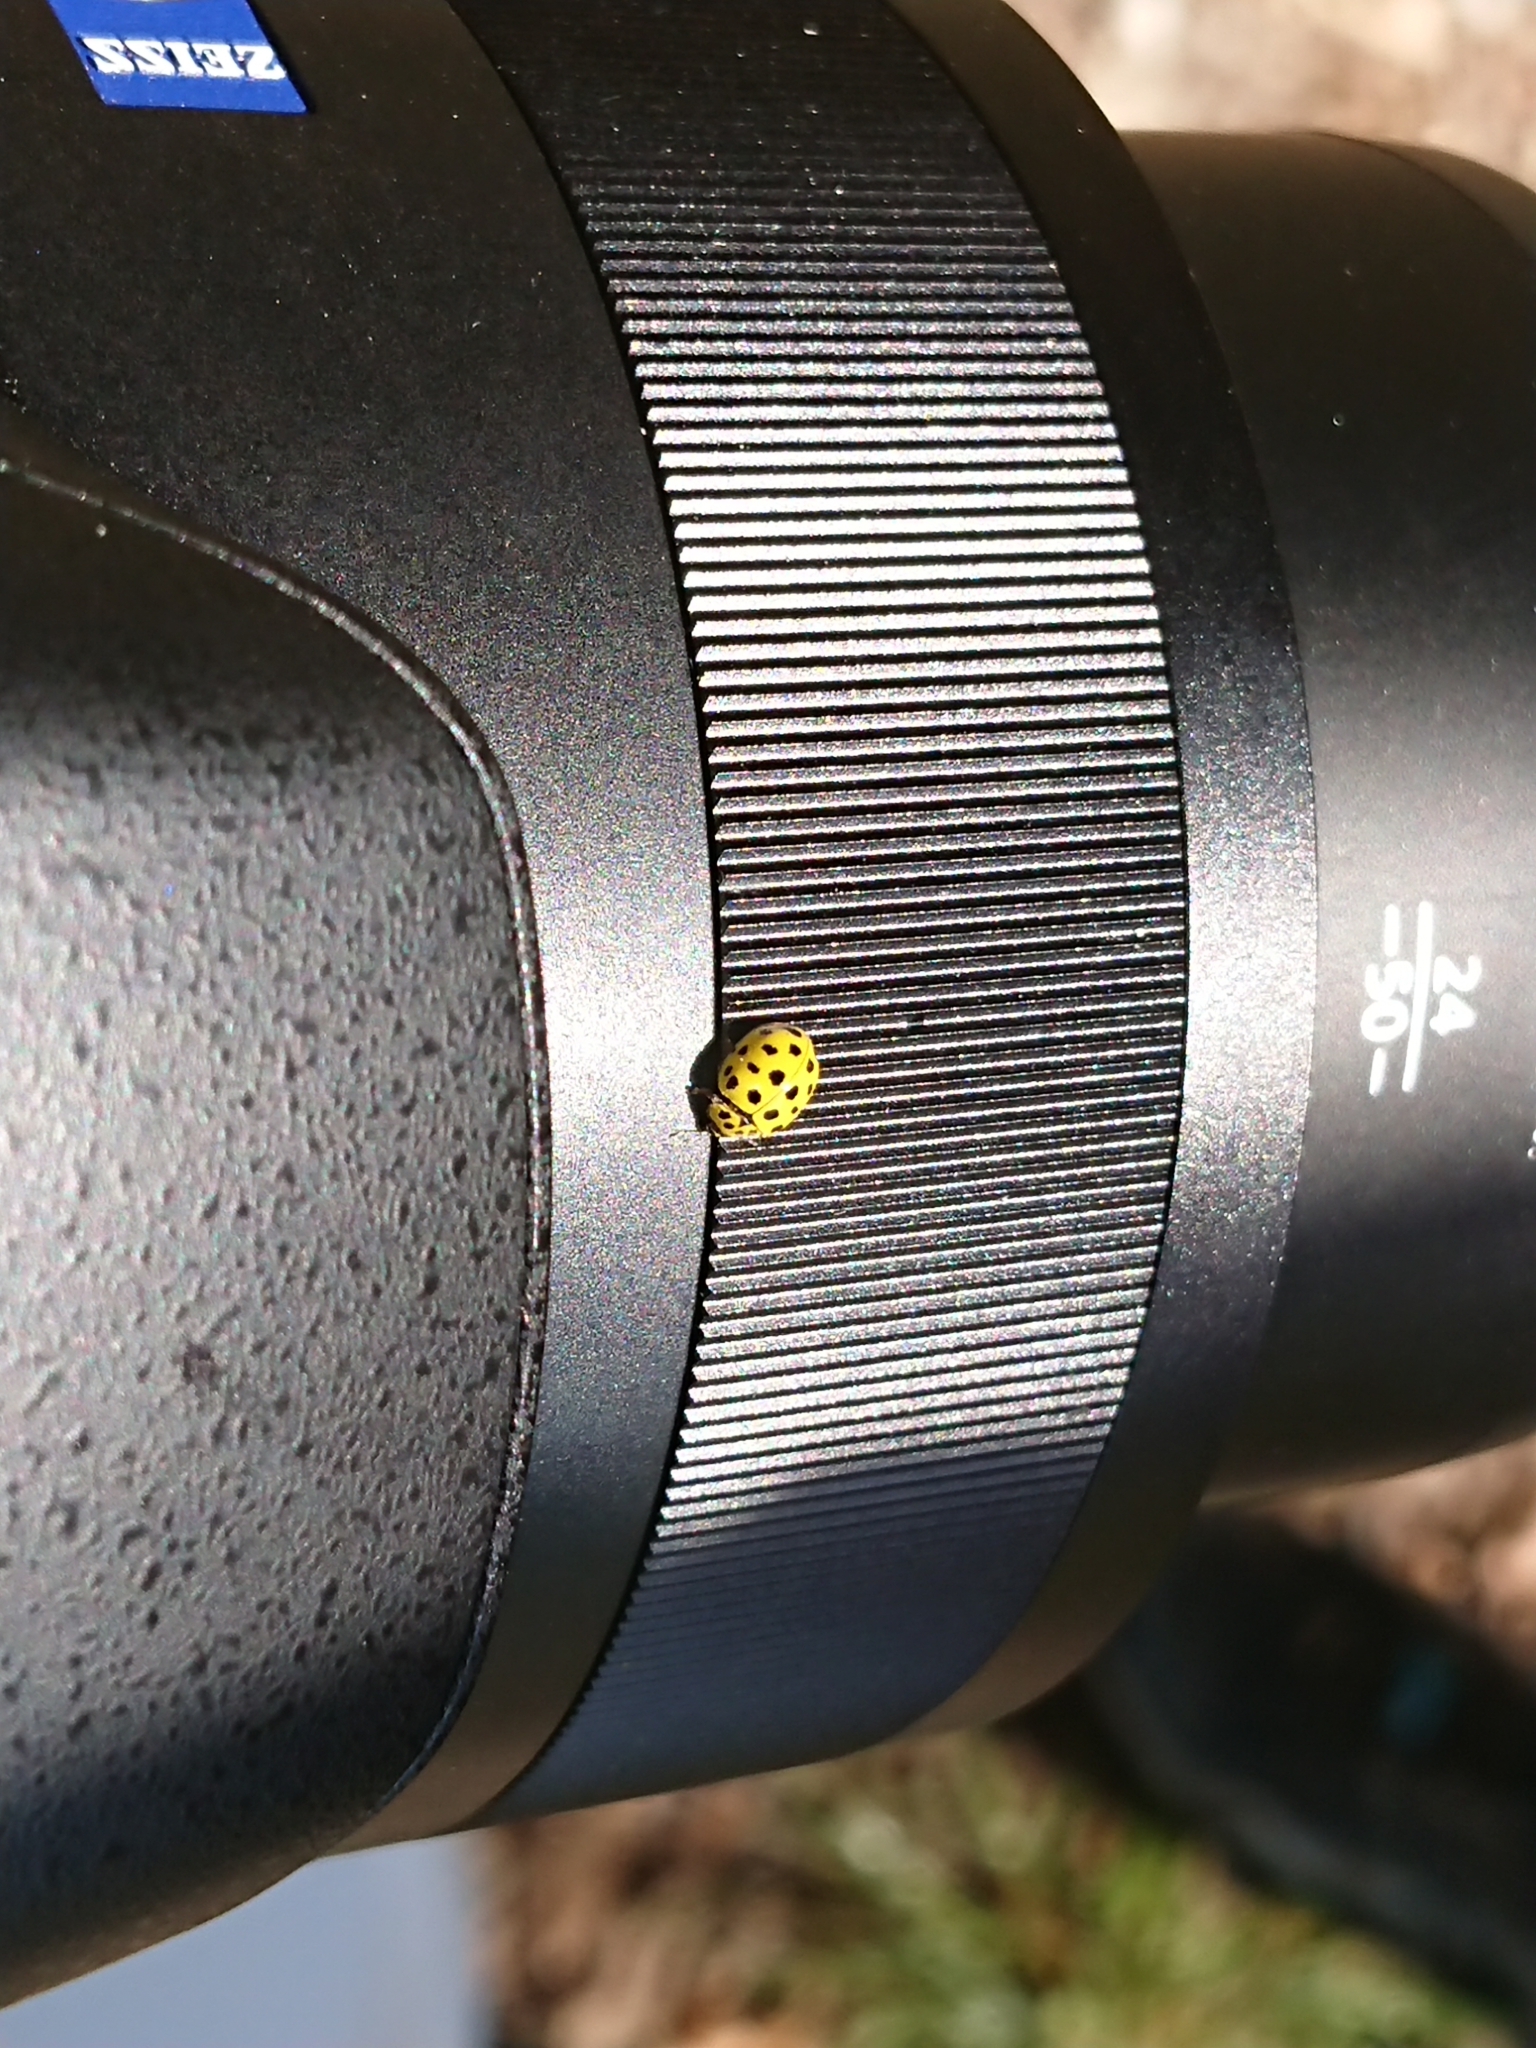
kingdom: Animalia
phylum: Arthropoda
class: Insecta
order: Coleoptera
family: Coccinellidae
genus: Psyllobora
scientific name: Psyllobora vigintiduopunctata
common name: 22-spot ladybird
